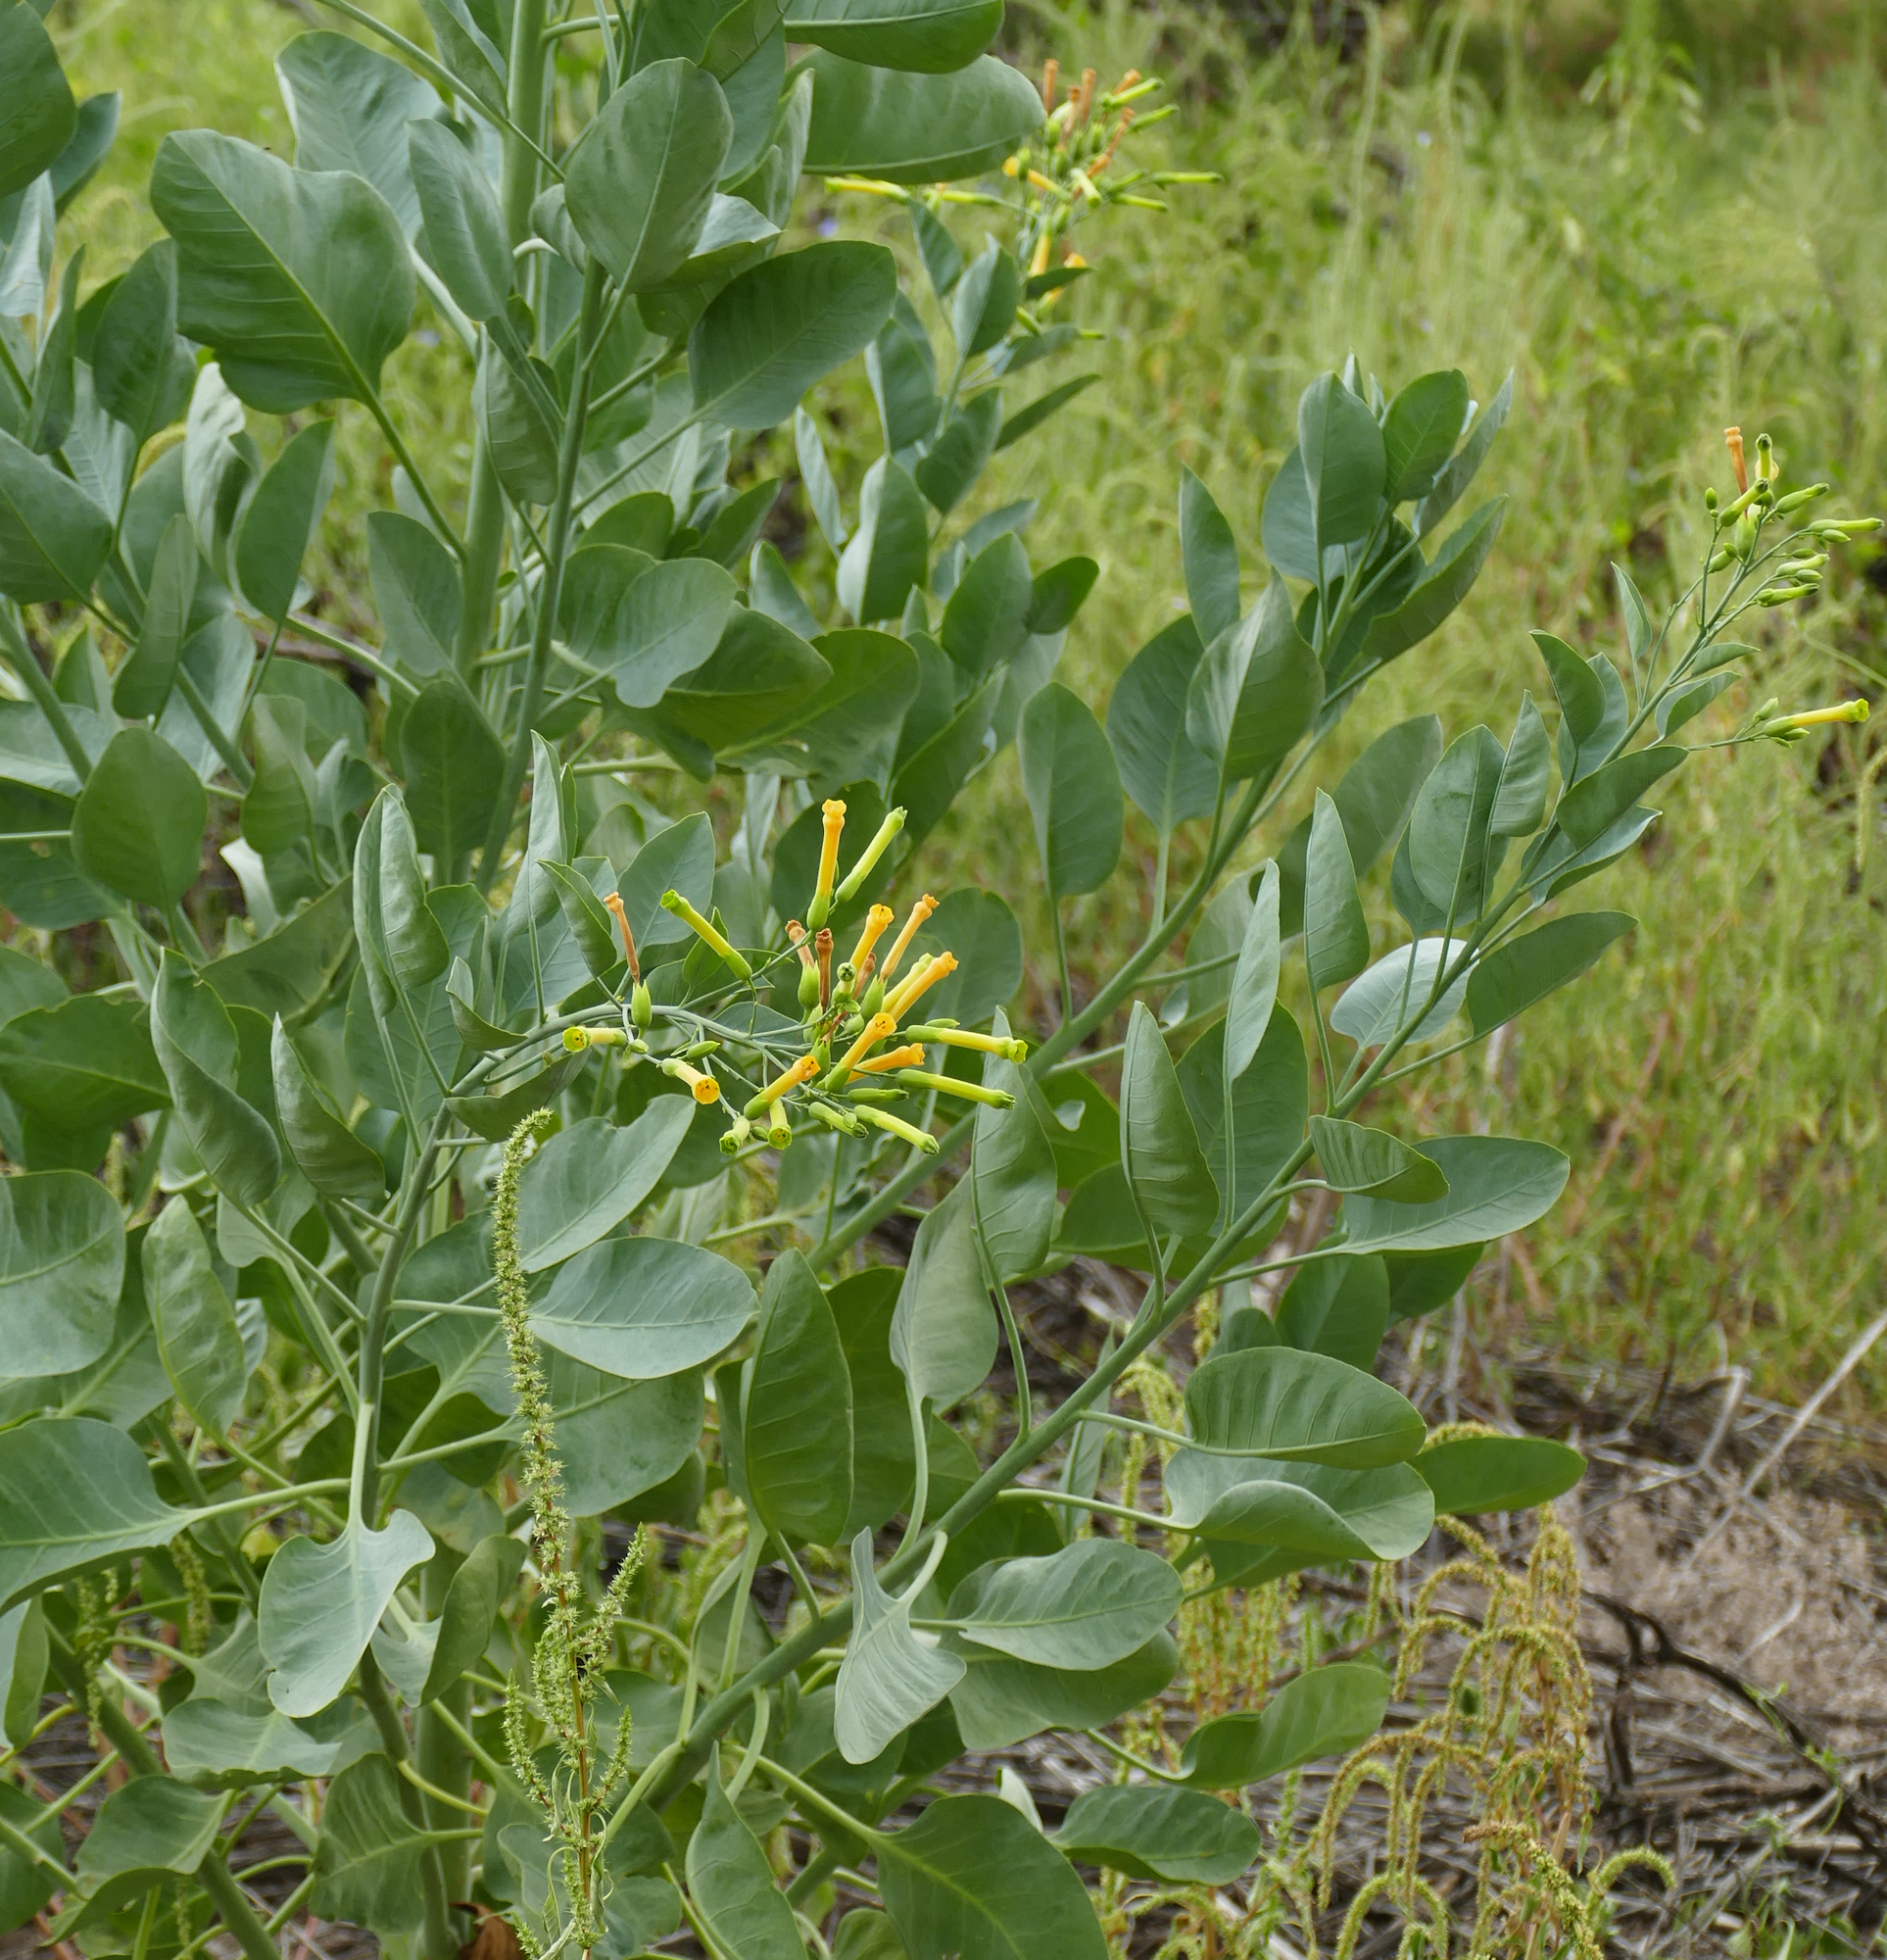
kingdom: Plantae
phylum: Tracheophyta
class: Magnoliopsida
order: Solanales
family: Solanaceae
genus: Nicotiana
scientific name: Nicotiana glauca
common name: Tree tobacco
